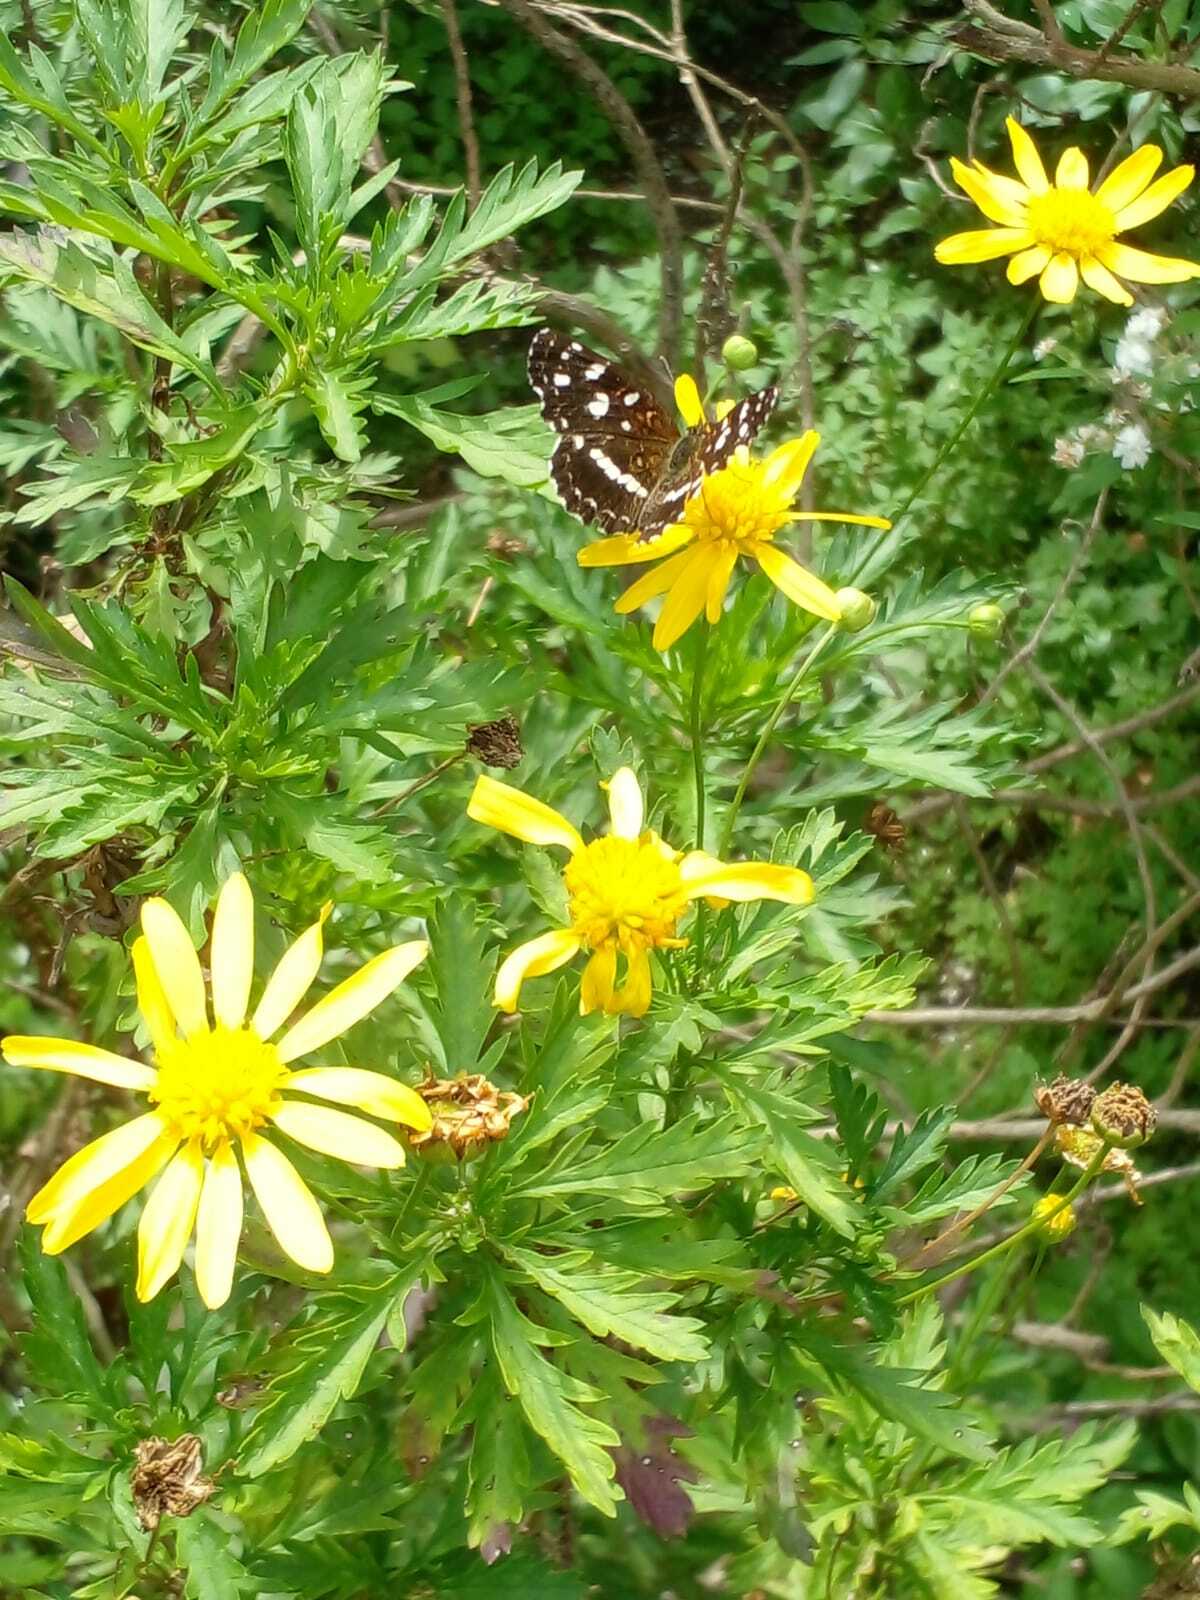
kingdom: Animalia
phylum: Arthropoda
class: Insecta
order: Lepidoptera
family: Nymphalidae
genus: Ortilia
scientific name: Ortilia ithra
